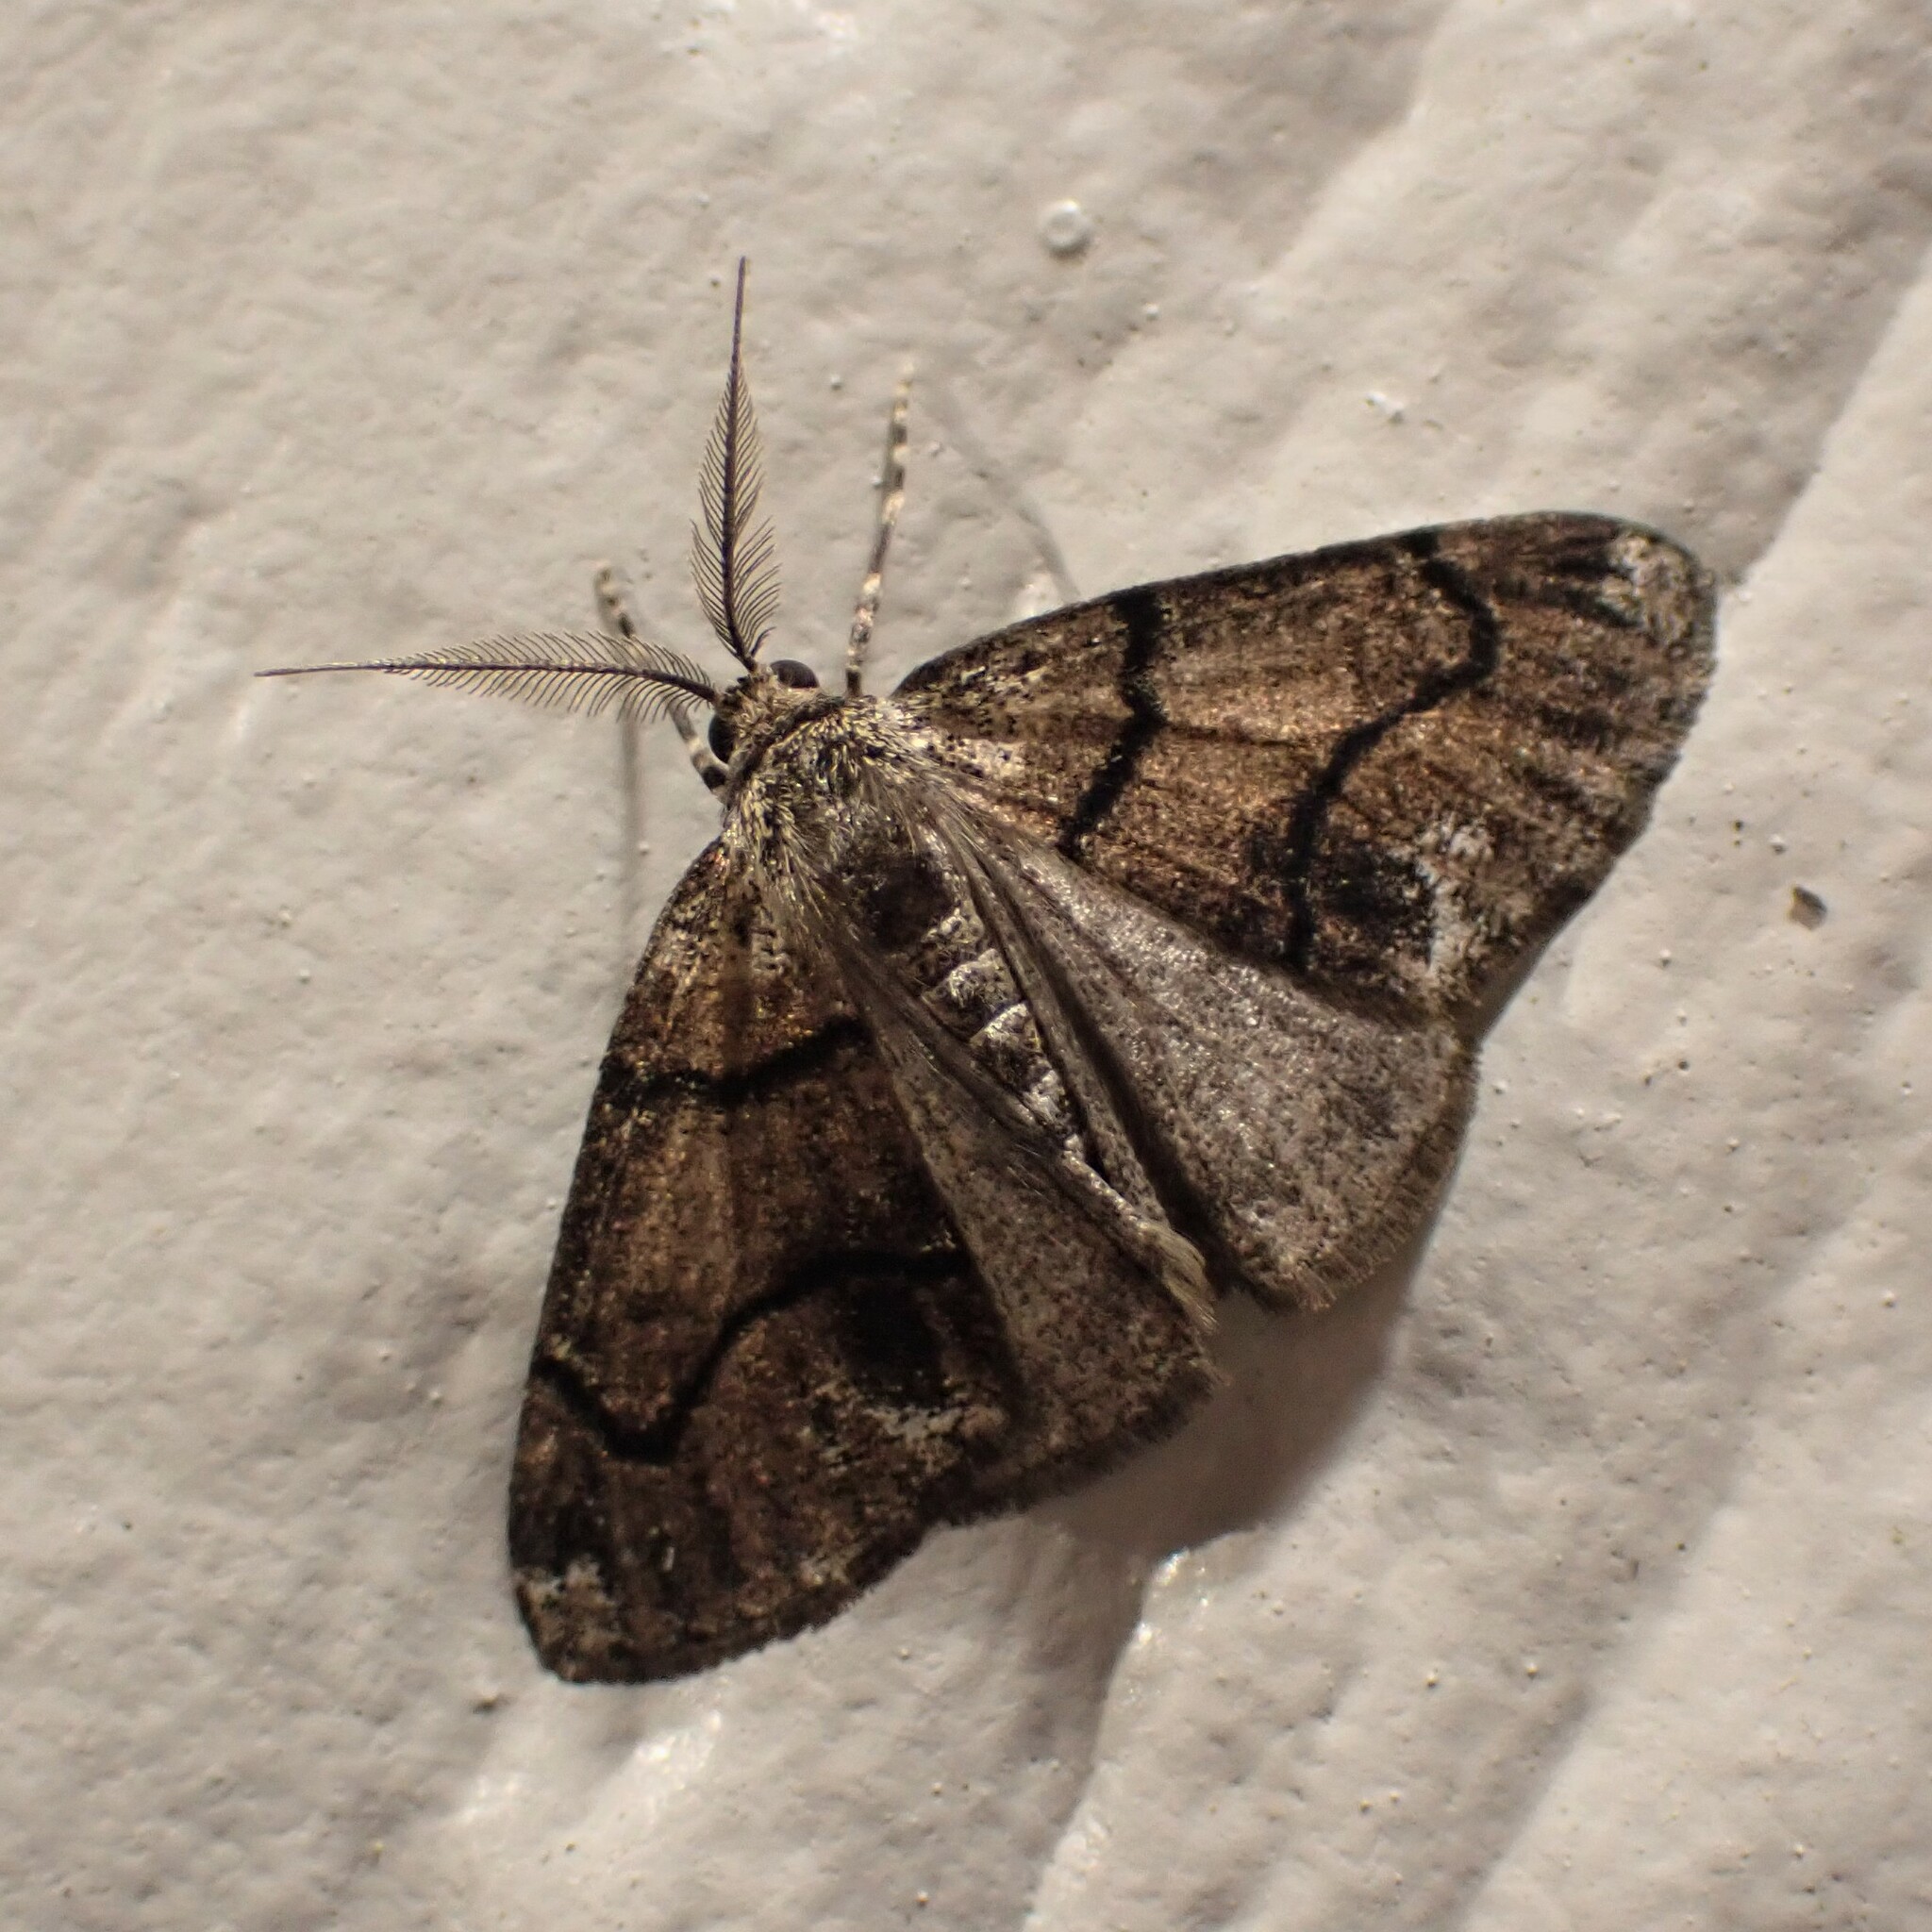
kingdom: Animalia
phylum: Arthropoda
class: Insecta
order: Lepidoptera
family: Geometridae
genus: Gabriola
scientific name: Gabriola dyari
